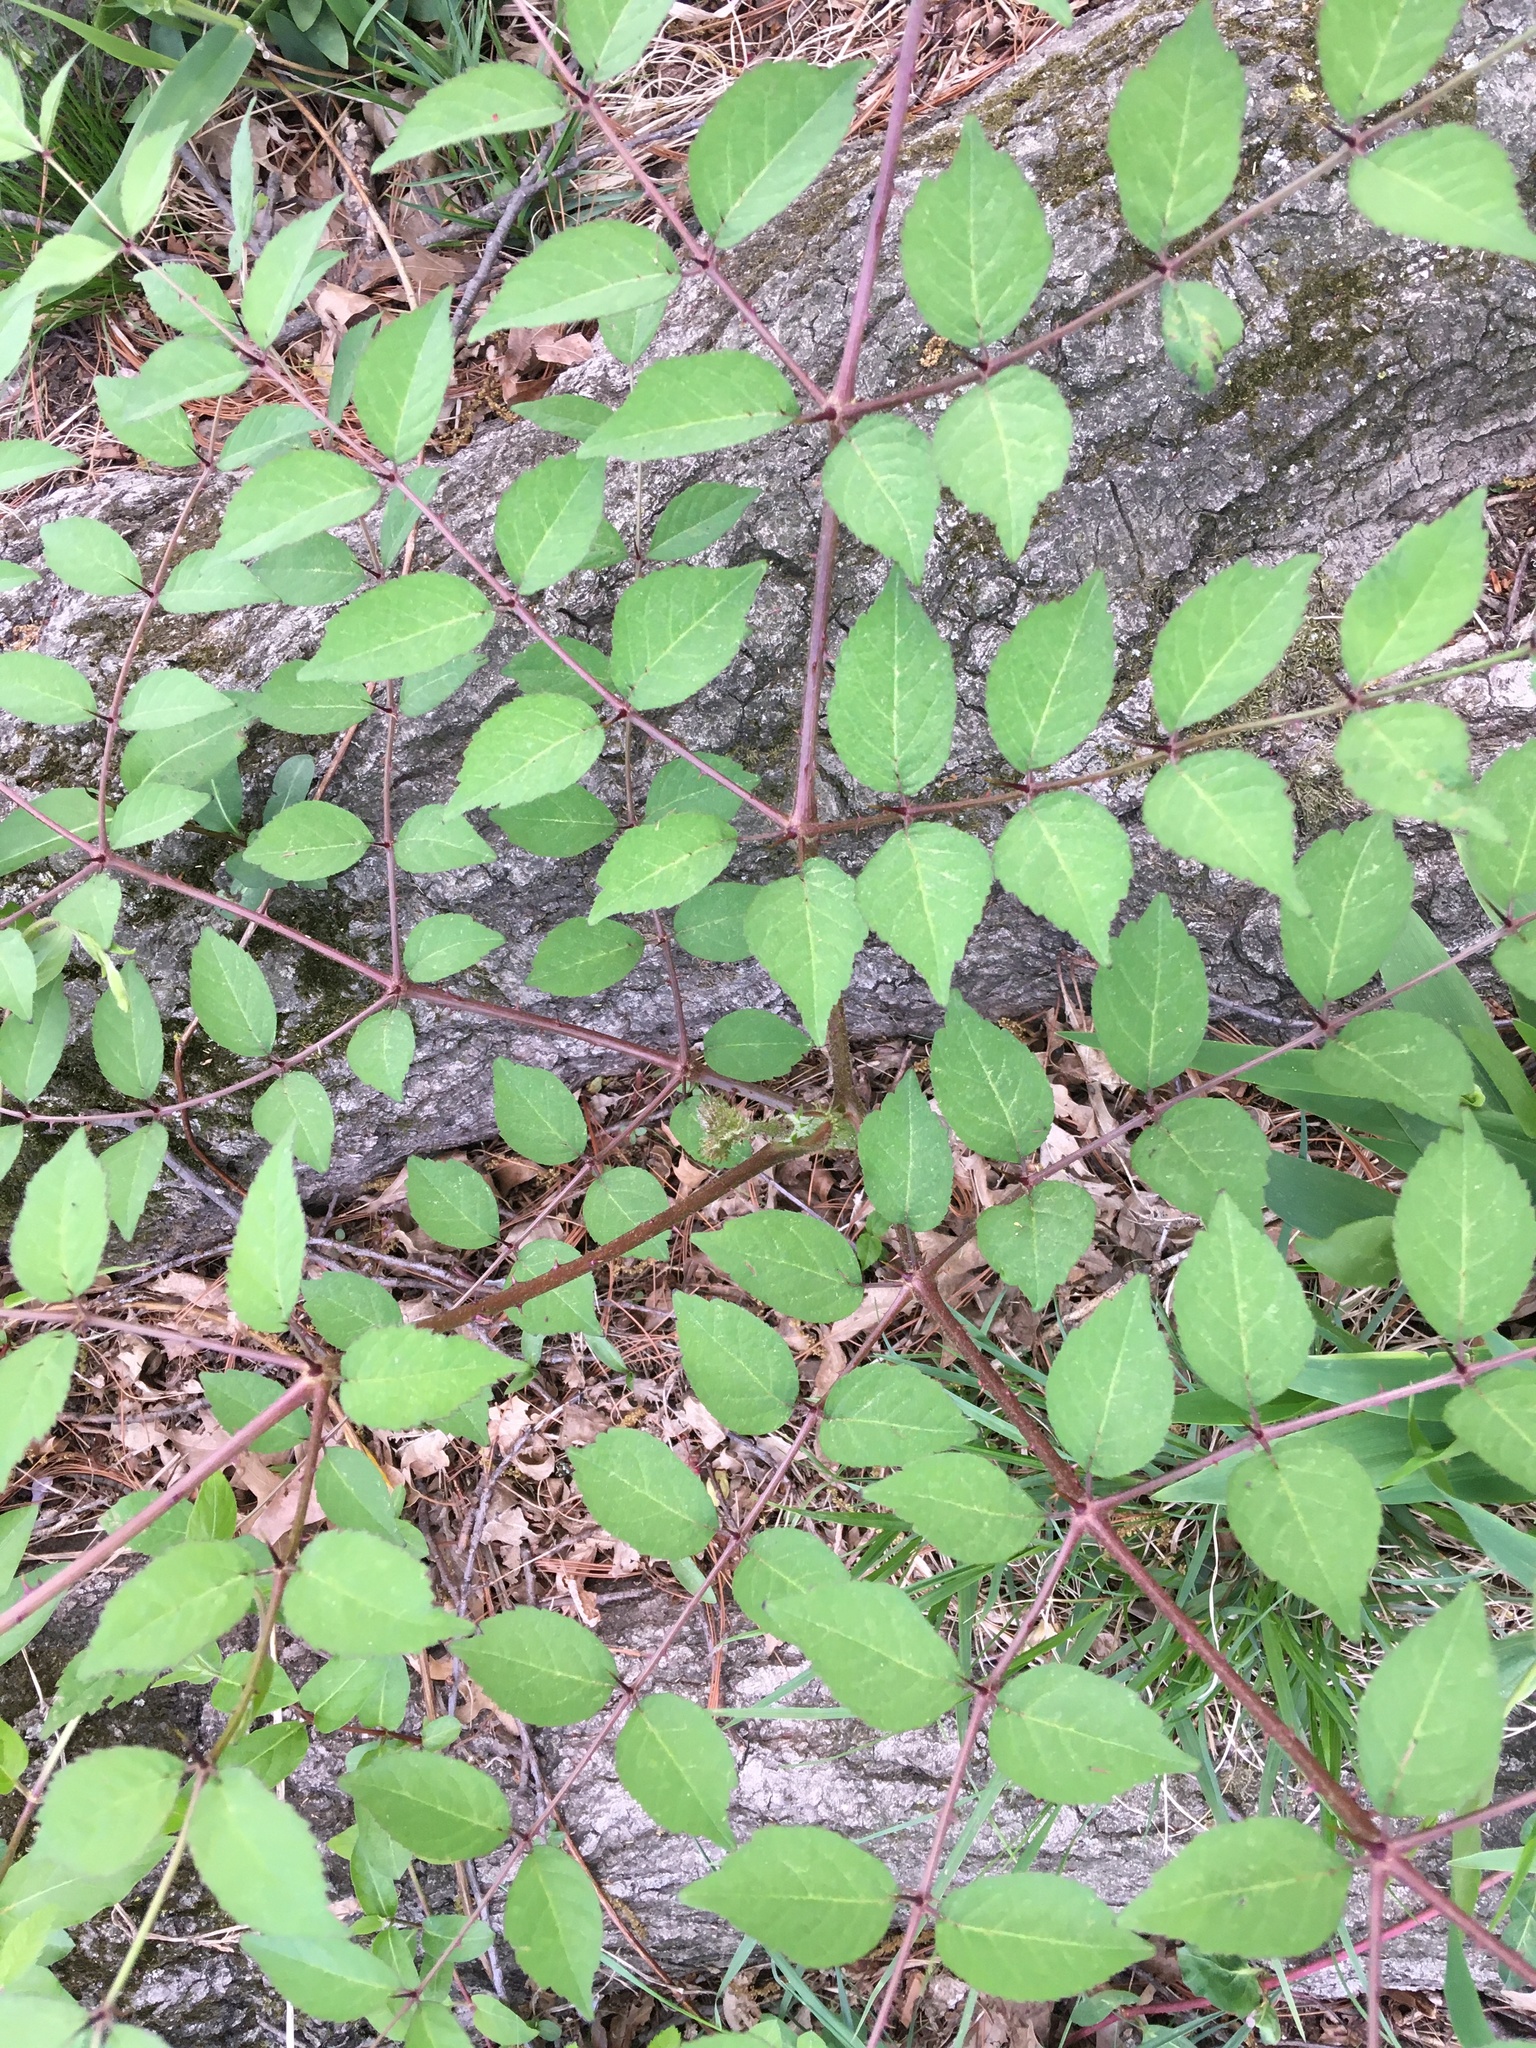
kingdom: Plantae
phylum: Tracheophyta
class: Magnoliopsida
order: Apiales
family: Araliaceae
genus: Aralia
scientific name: Aralia elata
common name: Japanese angelica-tree
